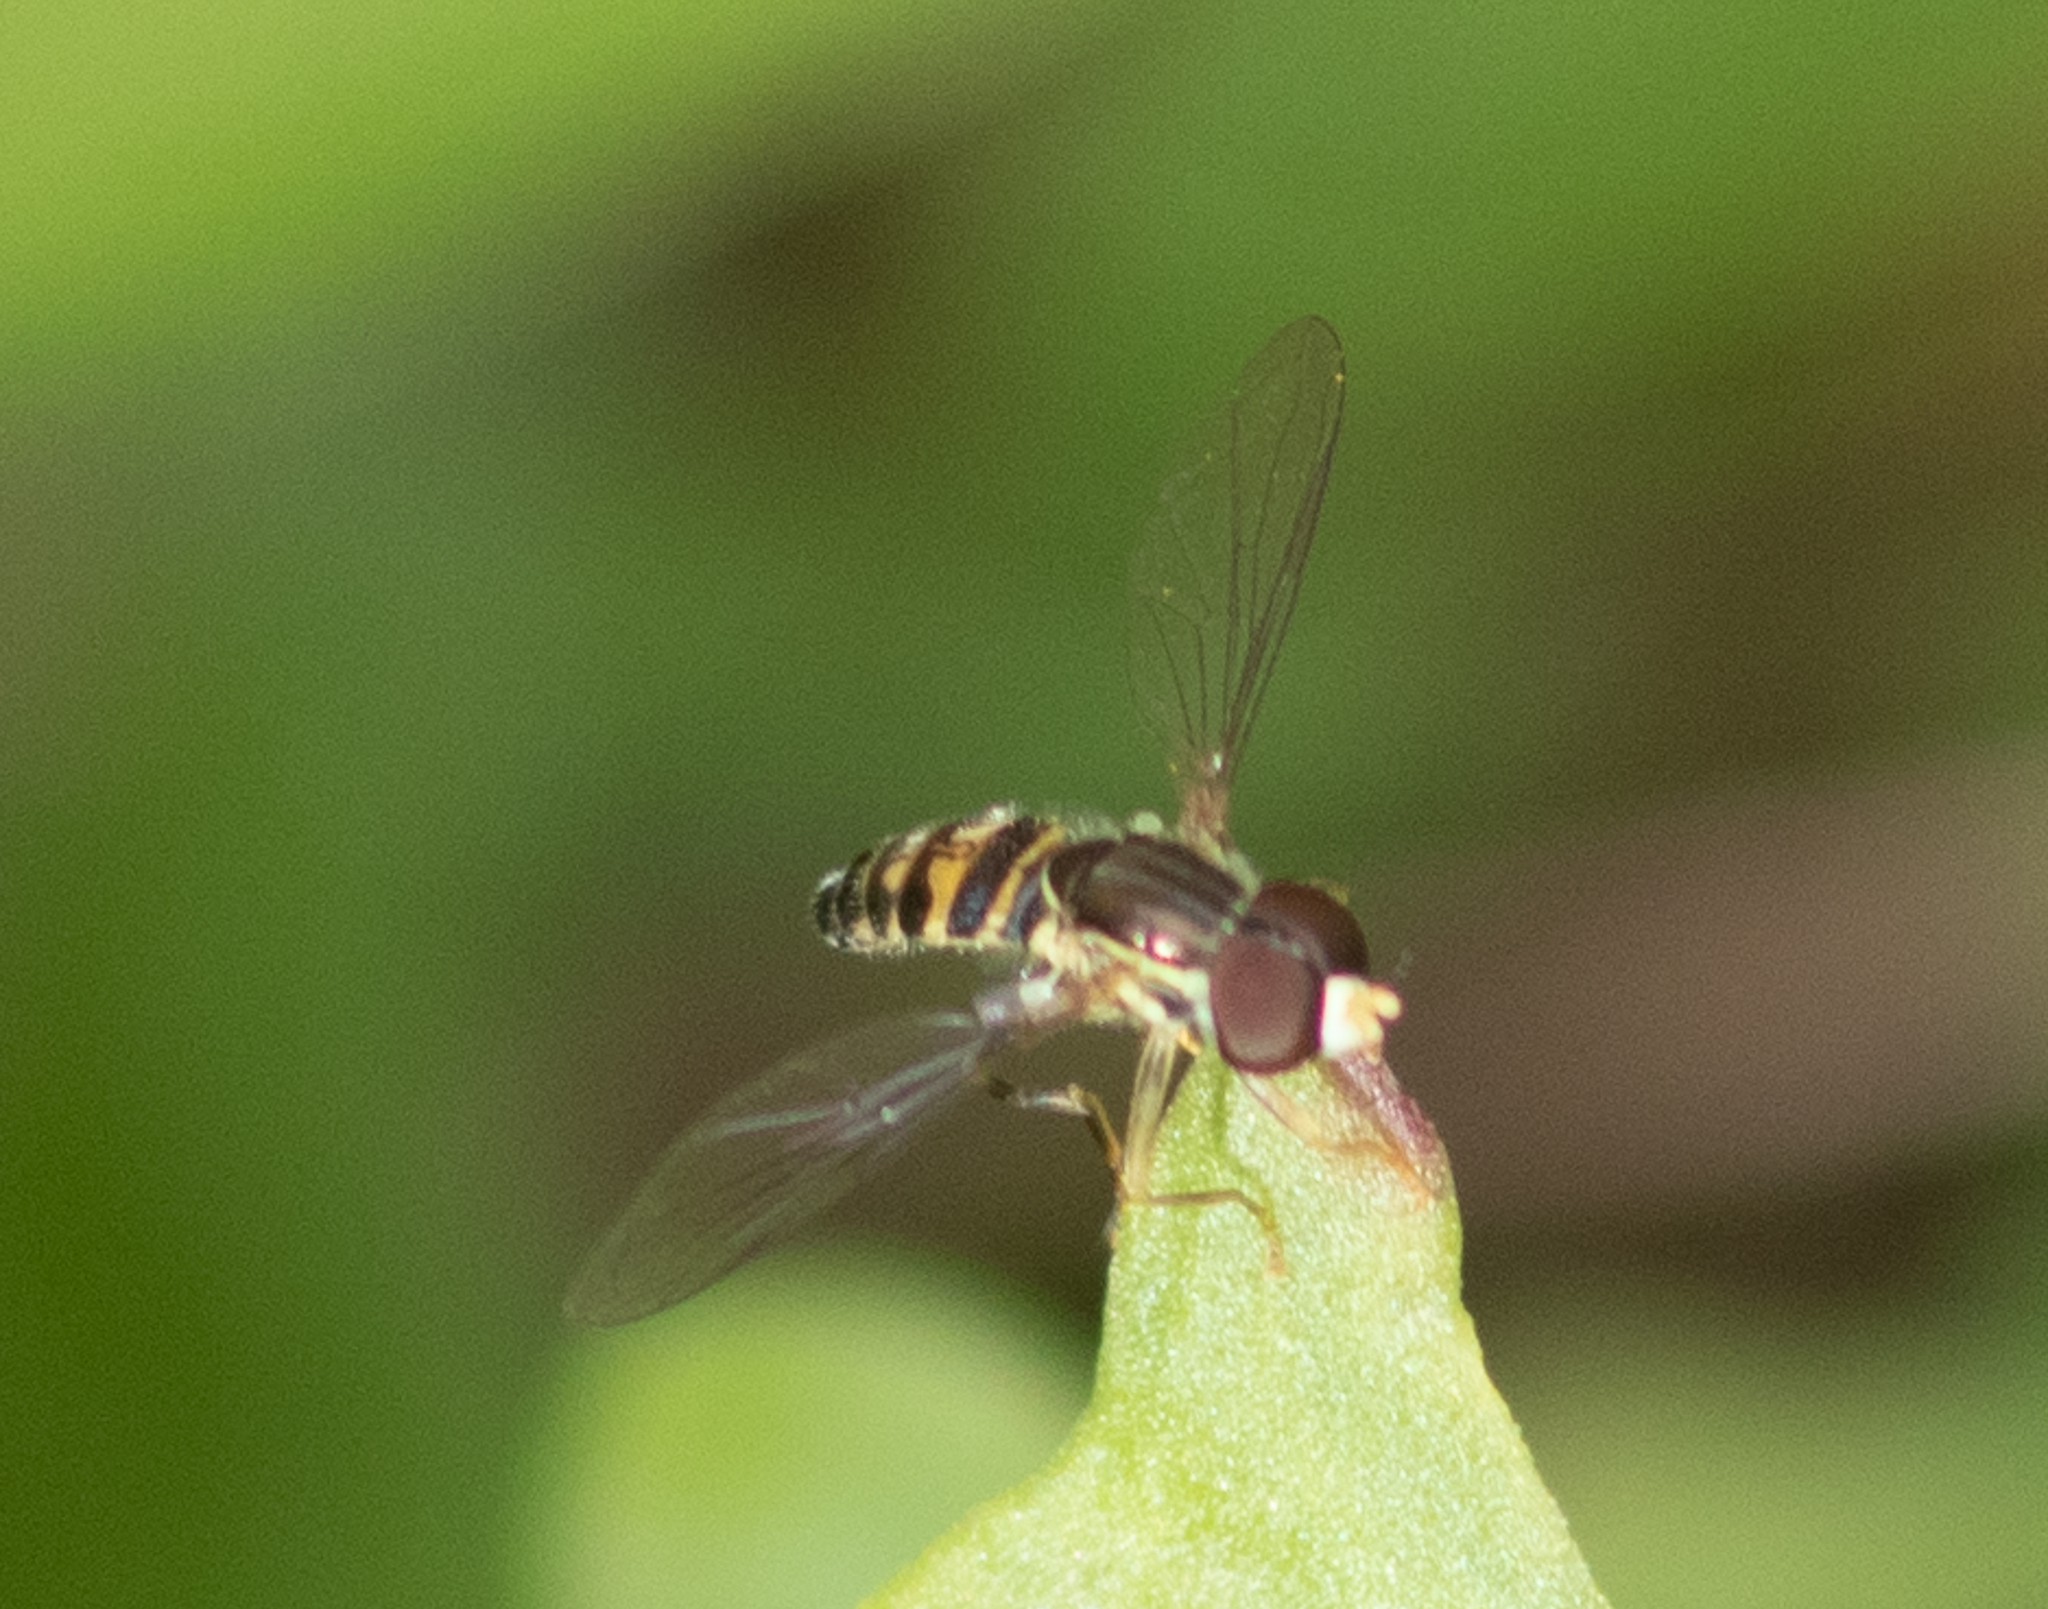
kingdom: Animalia
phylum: Arthropoda
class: Insecta
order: Diptera
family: Syrphidae
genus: Toxomerus
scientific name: Toxomerus geminatus
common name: Eastern calligrapher
